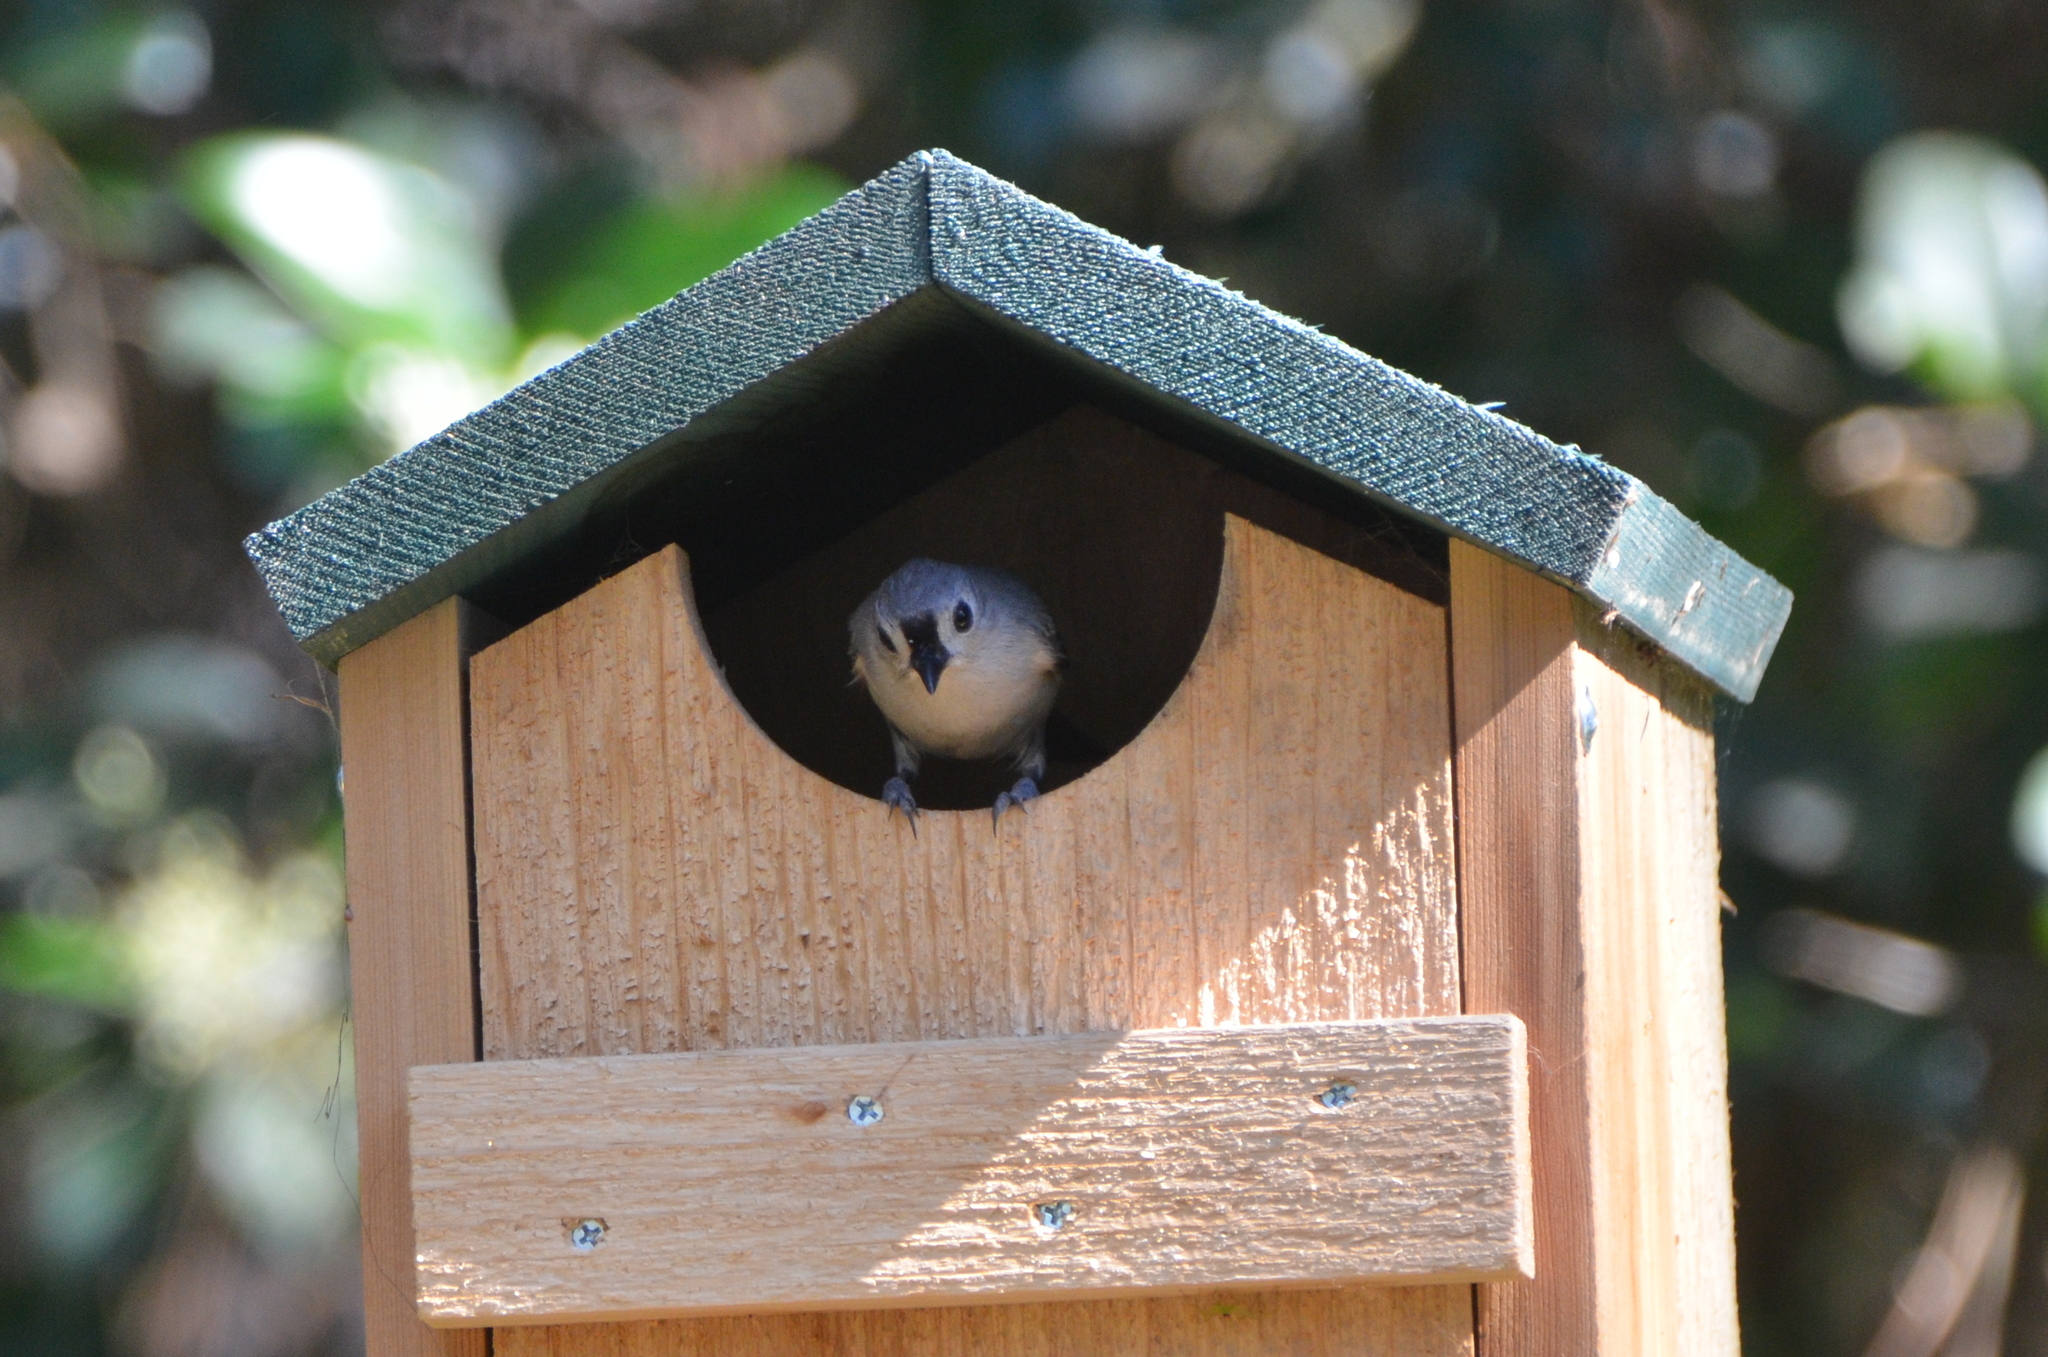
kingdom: Animalia
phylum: Chordata
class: Aves
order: Passeriformes
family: Paridae
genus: Baeolophus
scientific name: Baeolophus bicolor
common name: Tufted titmouse
